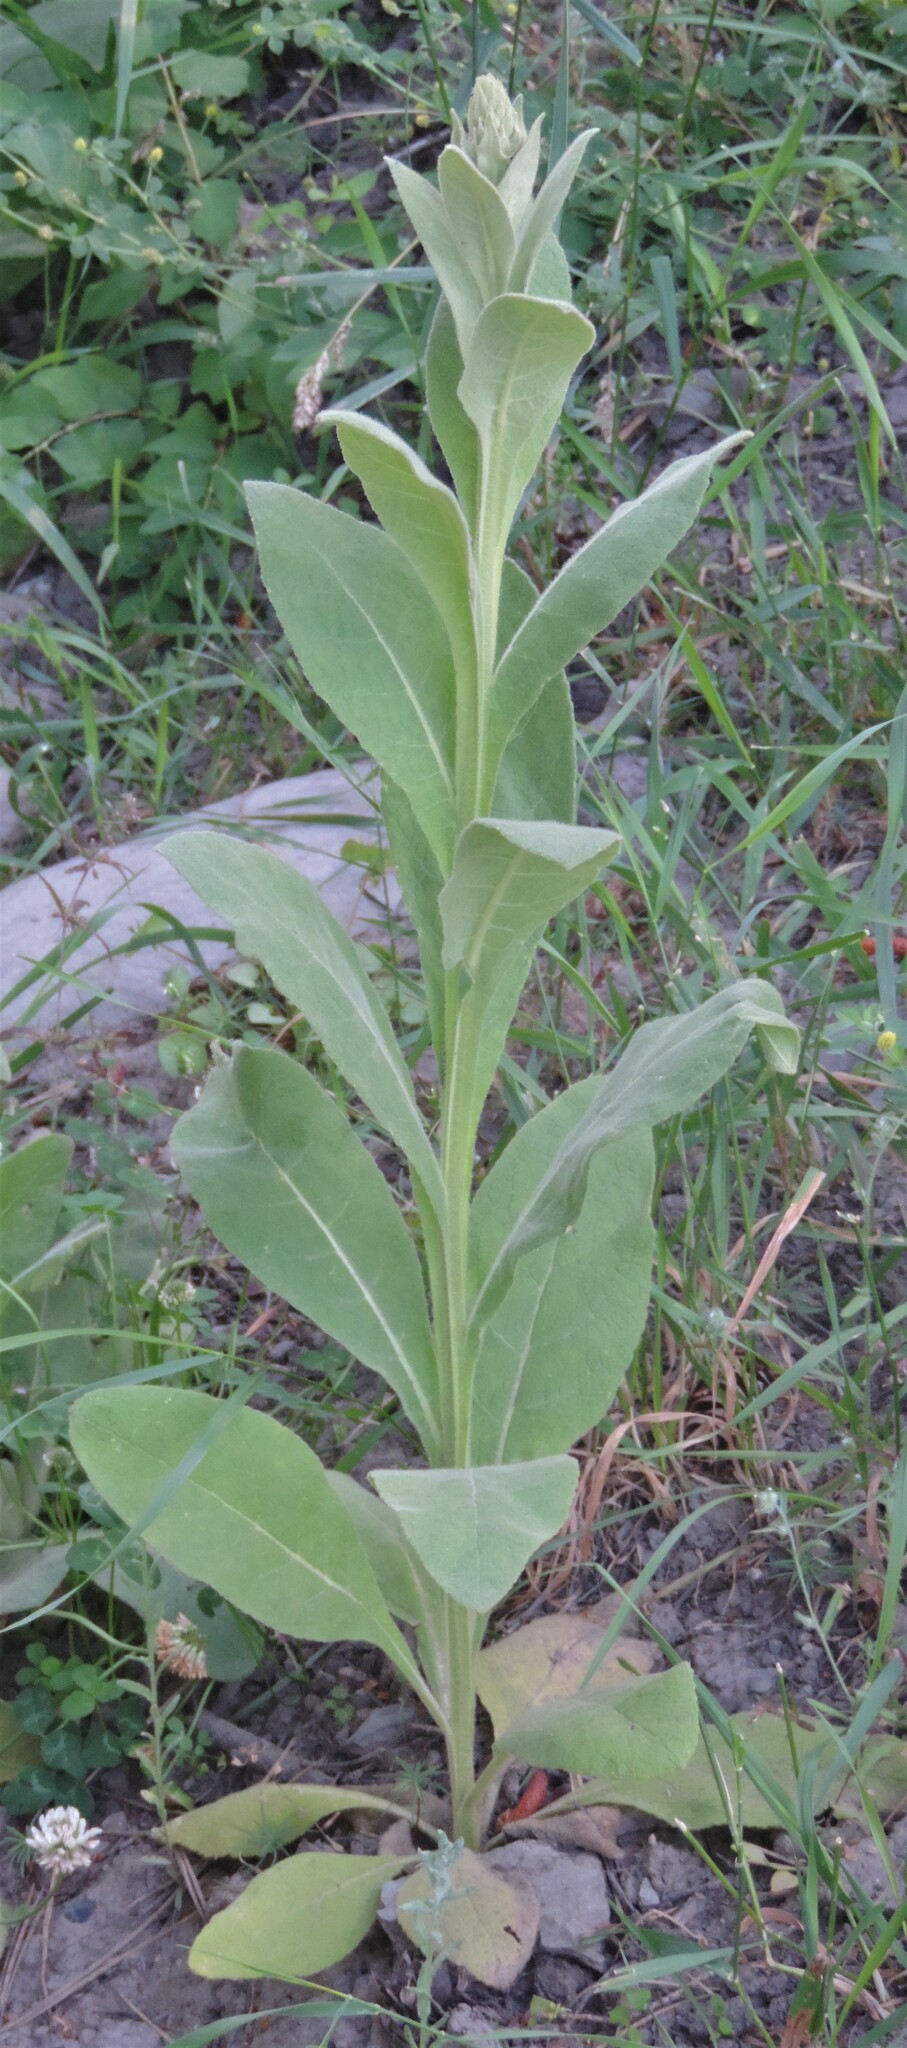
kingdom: Plantae
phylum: Tracheophyta
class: Magnoliopsida
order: Lamiales
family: Scrophulariaceae
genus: Verbascum
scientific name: Verbascum thapsus
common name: Common mullein
